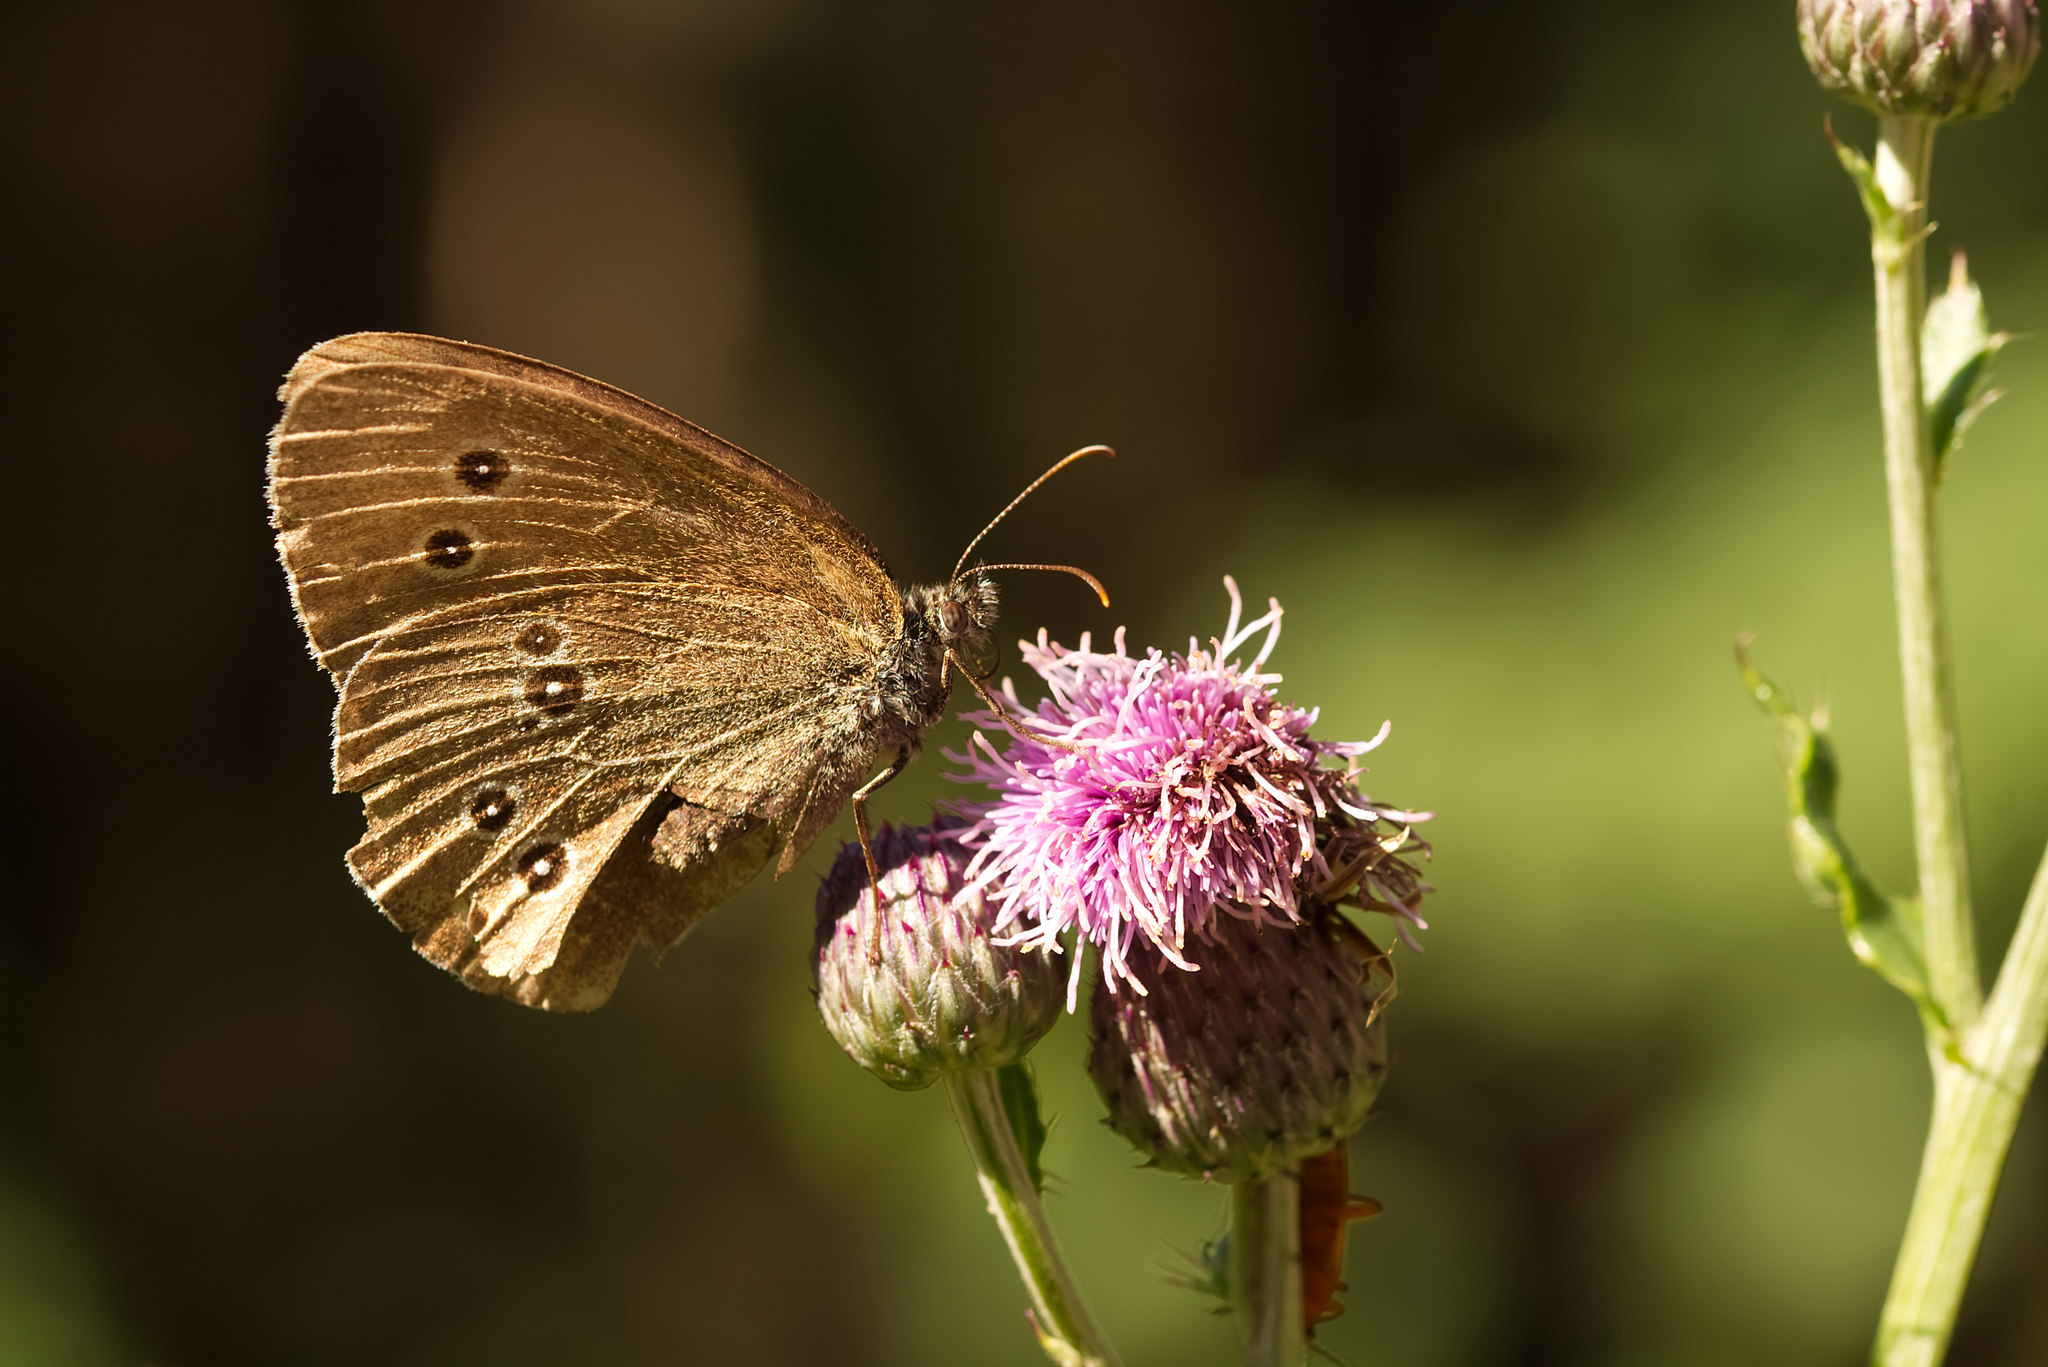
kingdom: Animalia
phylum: Arthropoda
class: Insecta
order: Lepidoptera
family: Nymphalidae
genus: Aphantopus
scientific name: Aphantopus hyperantus
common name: Ringlet
